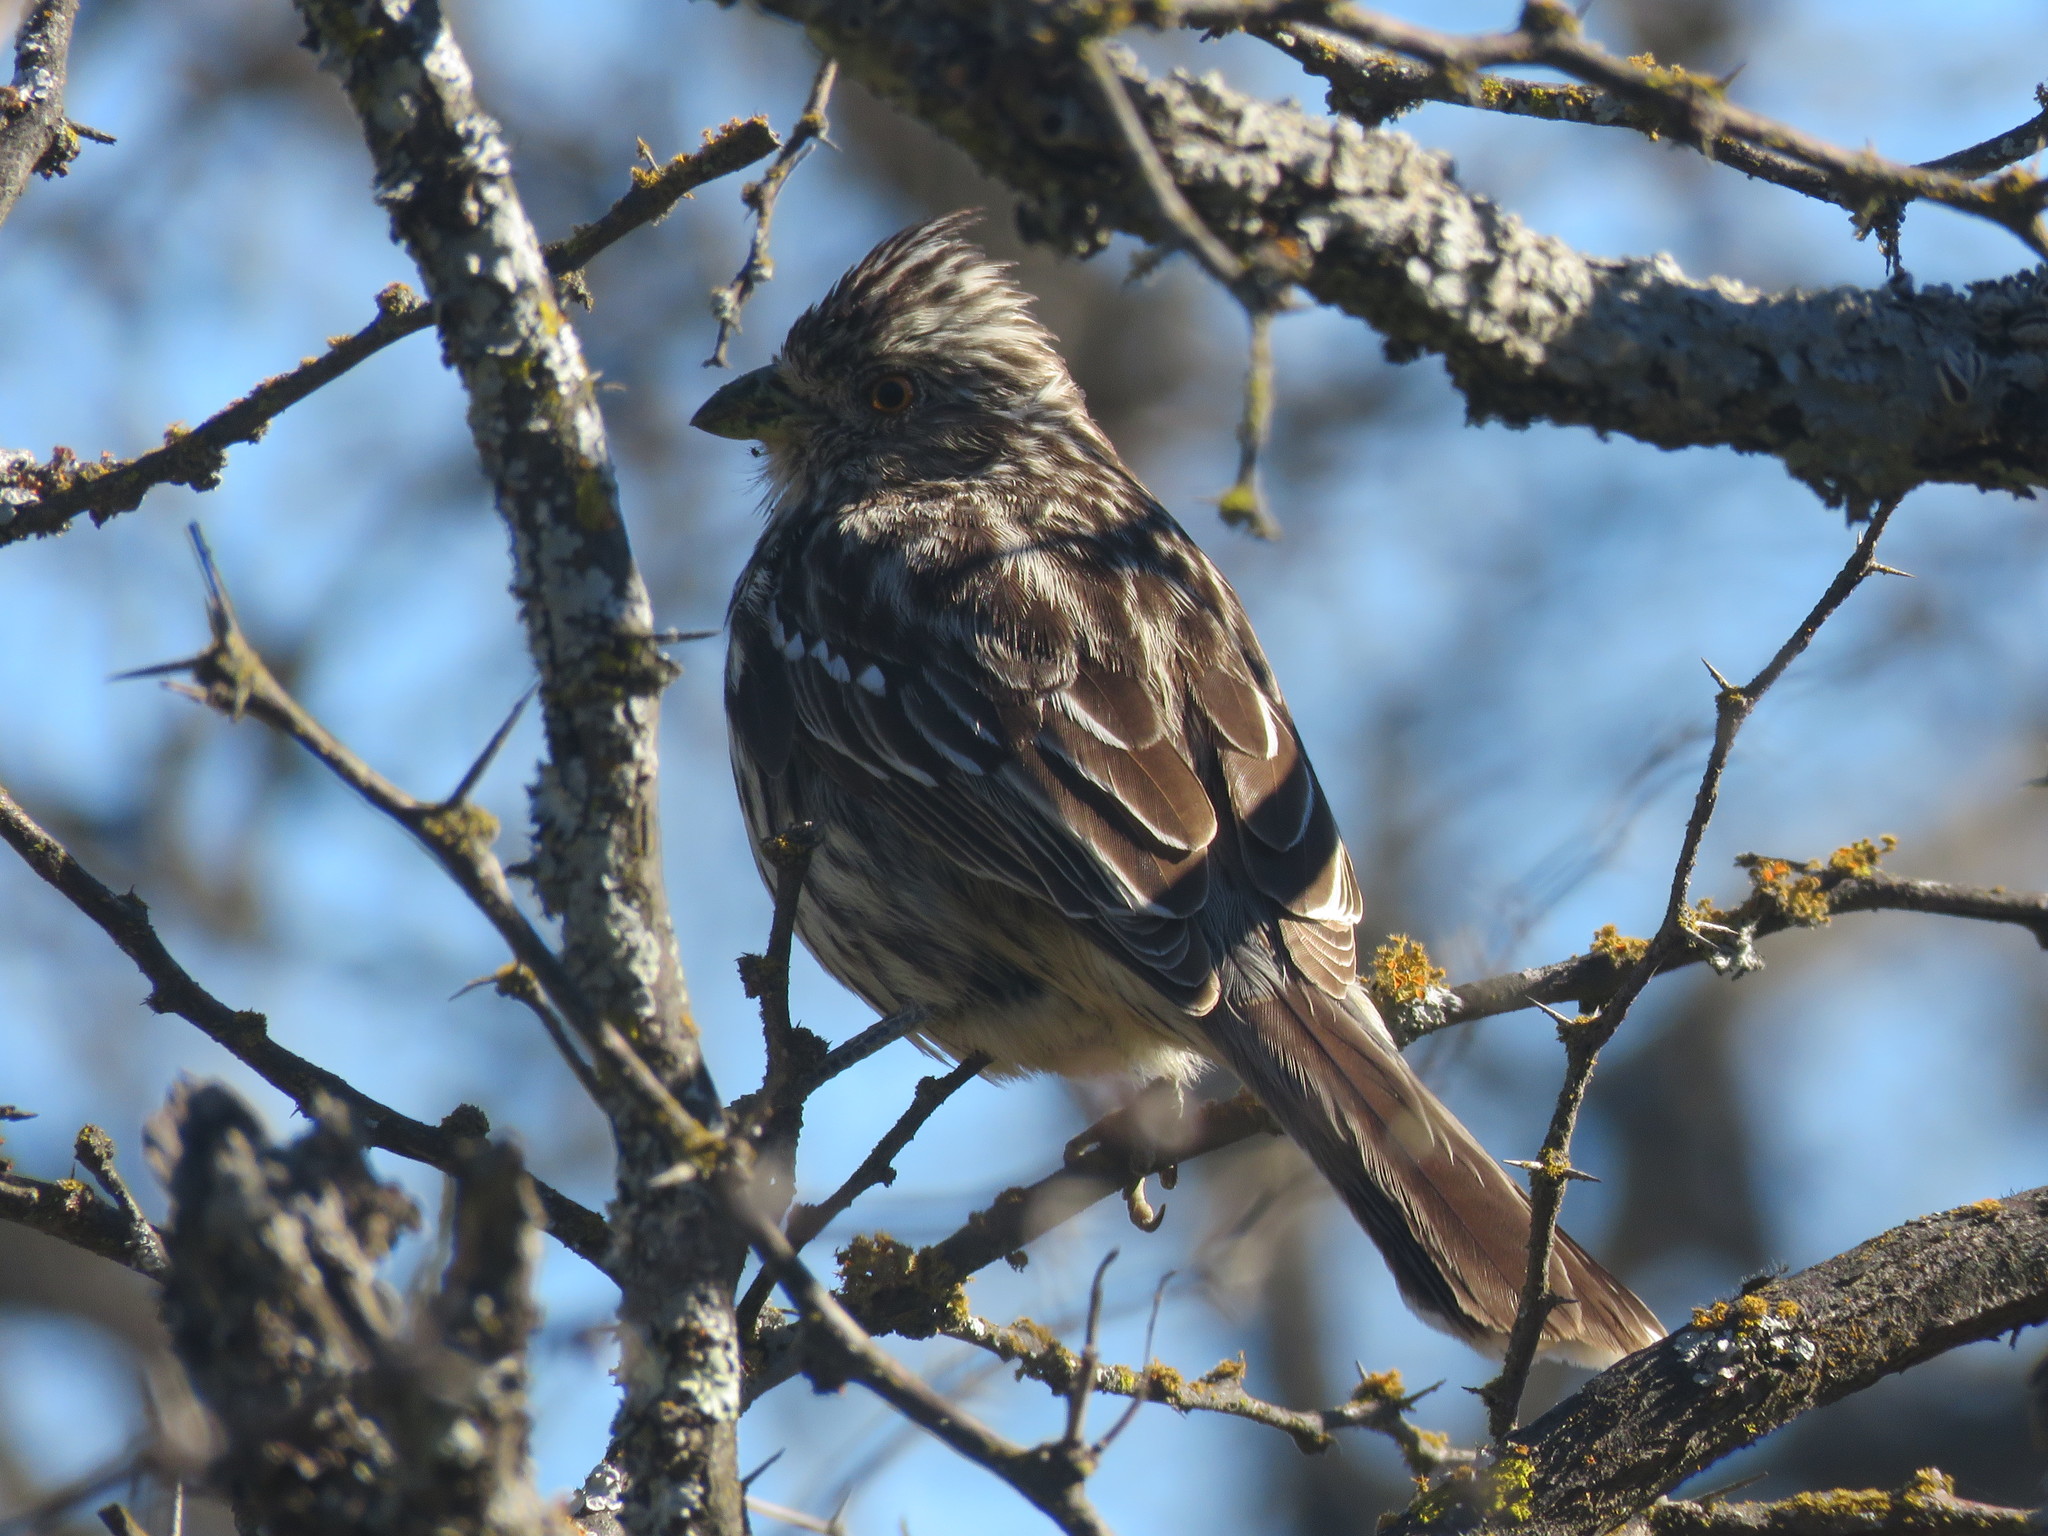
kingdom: Animalia
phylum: Chordata
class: Aves
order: Passeriformes
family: Cotingidae
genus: Phytotoma
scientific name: Phytotoma rutila
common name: White-tipped plantcutter
